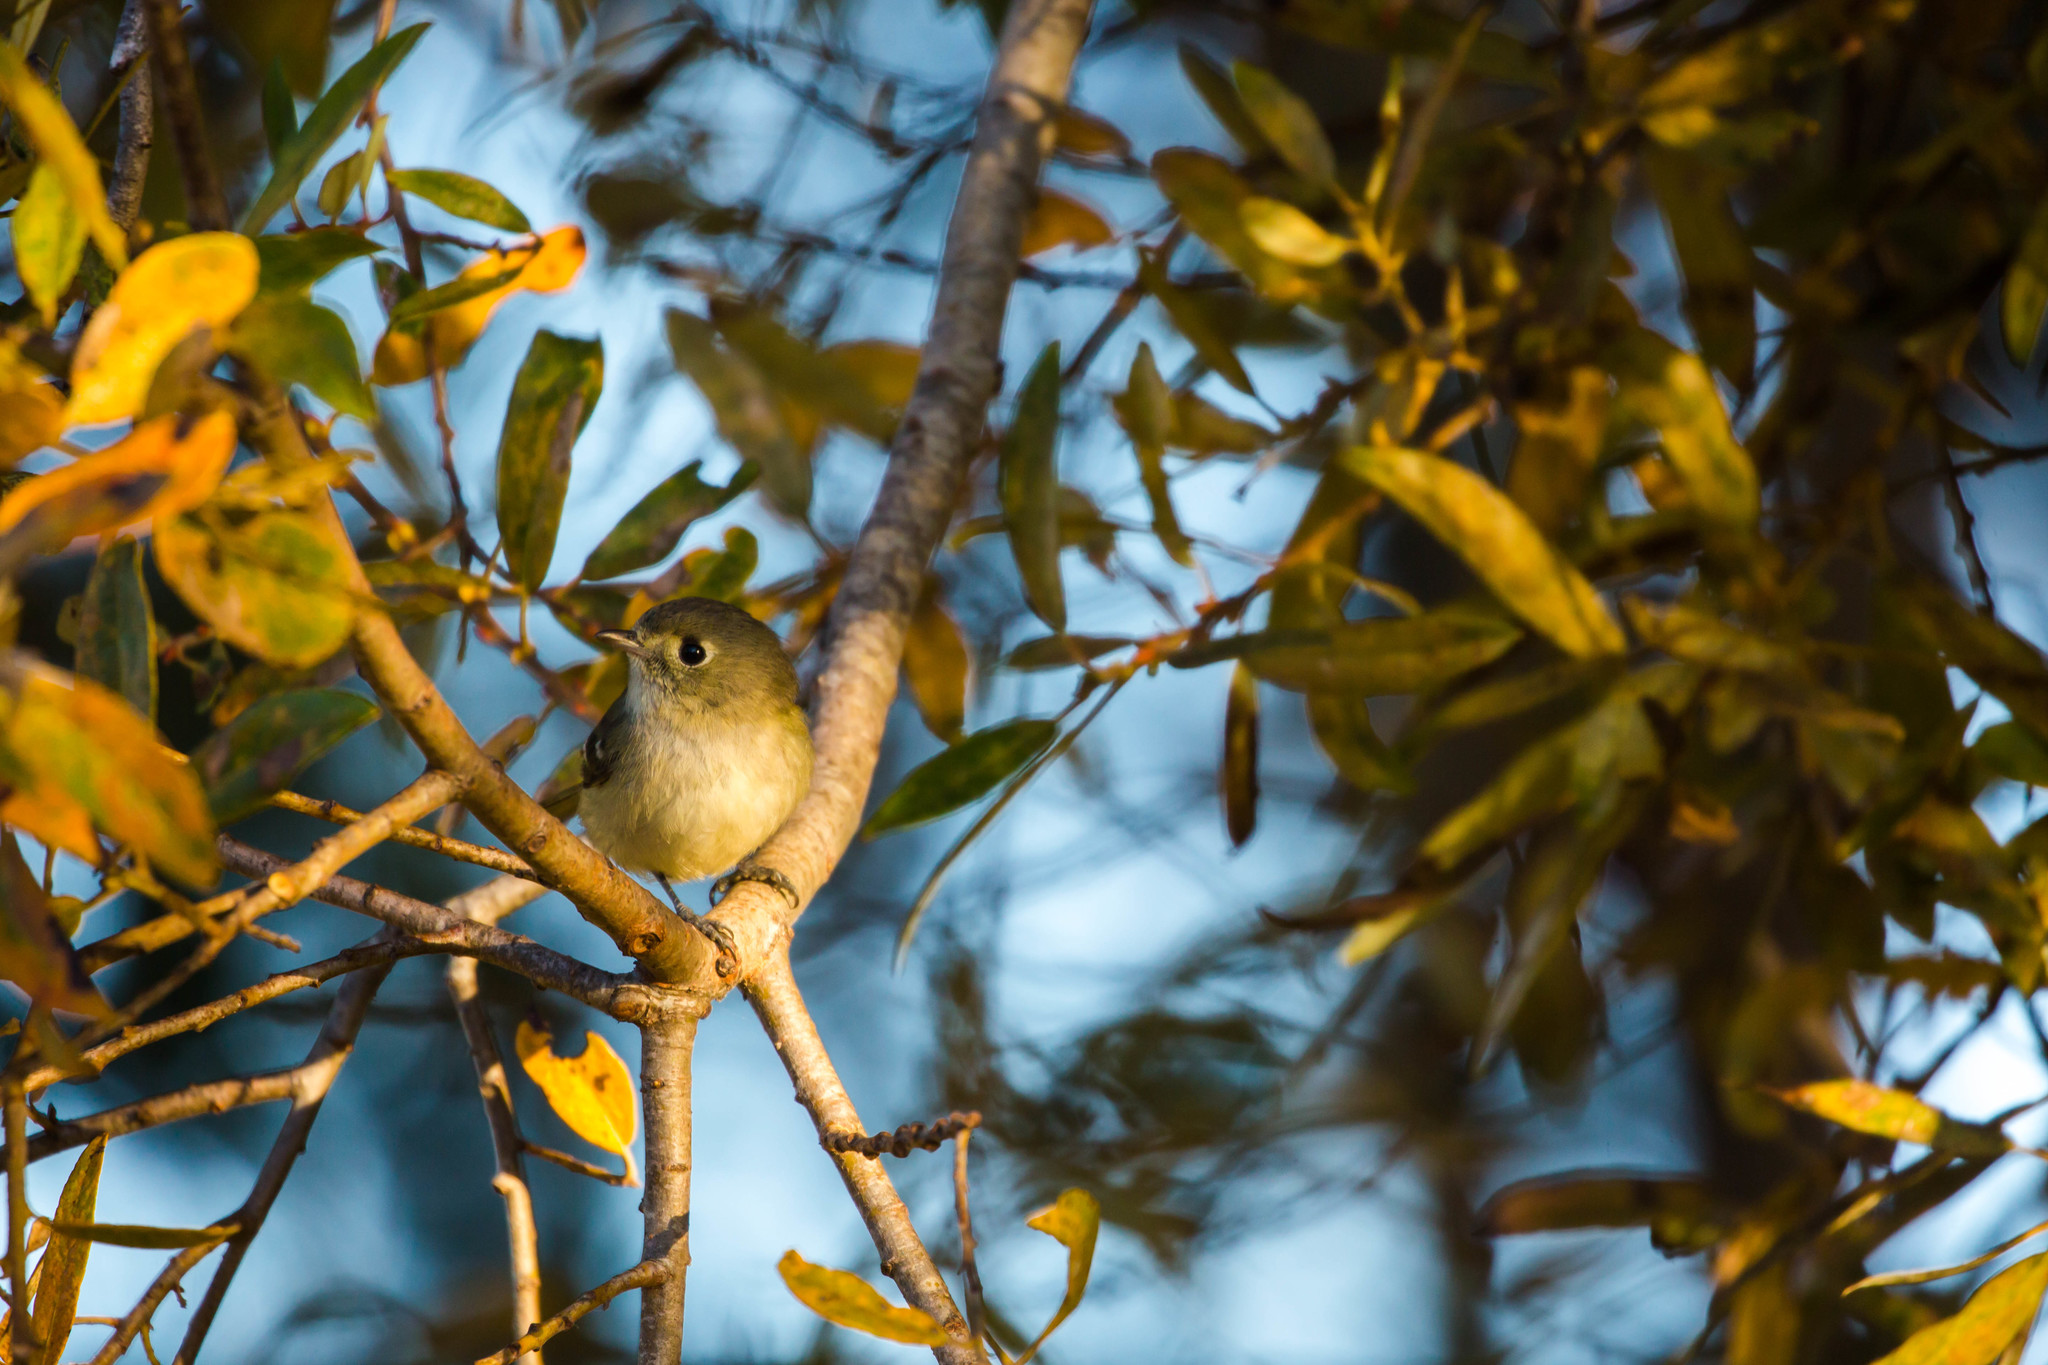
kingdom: Animalia
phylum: Chordata
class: Aves
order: Passeriformes
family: Regulidae
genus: Regulus
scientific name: Regulus calendula
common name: Ruby-crowned kinglet
